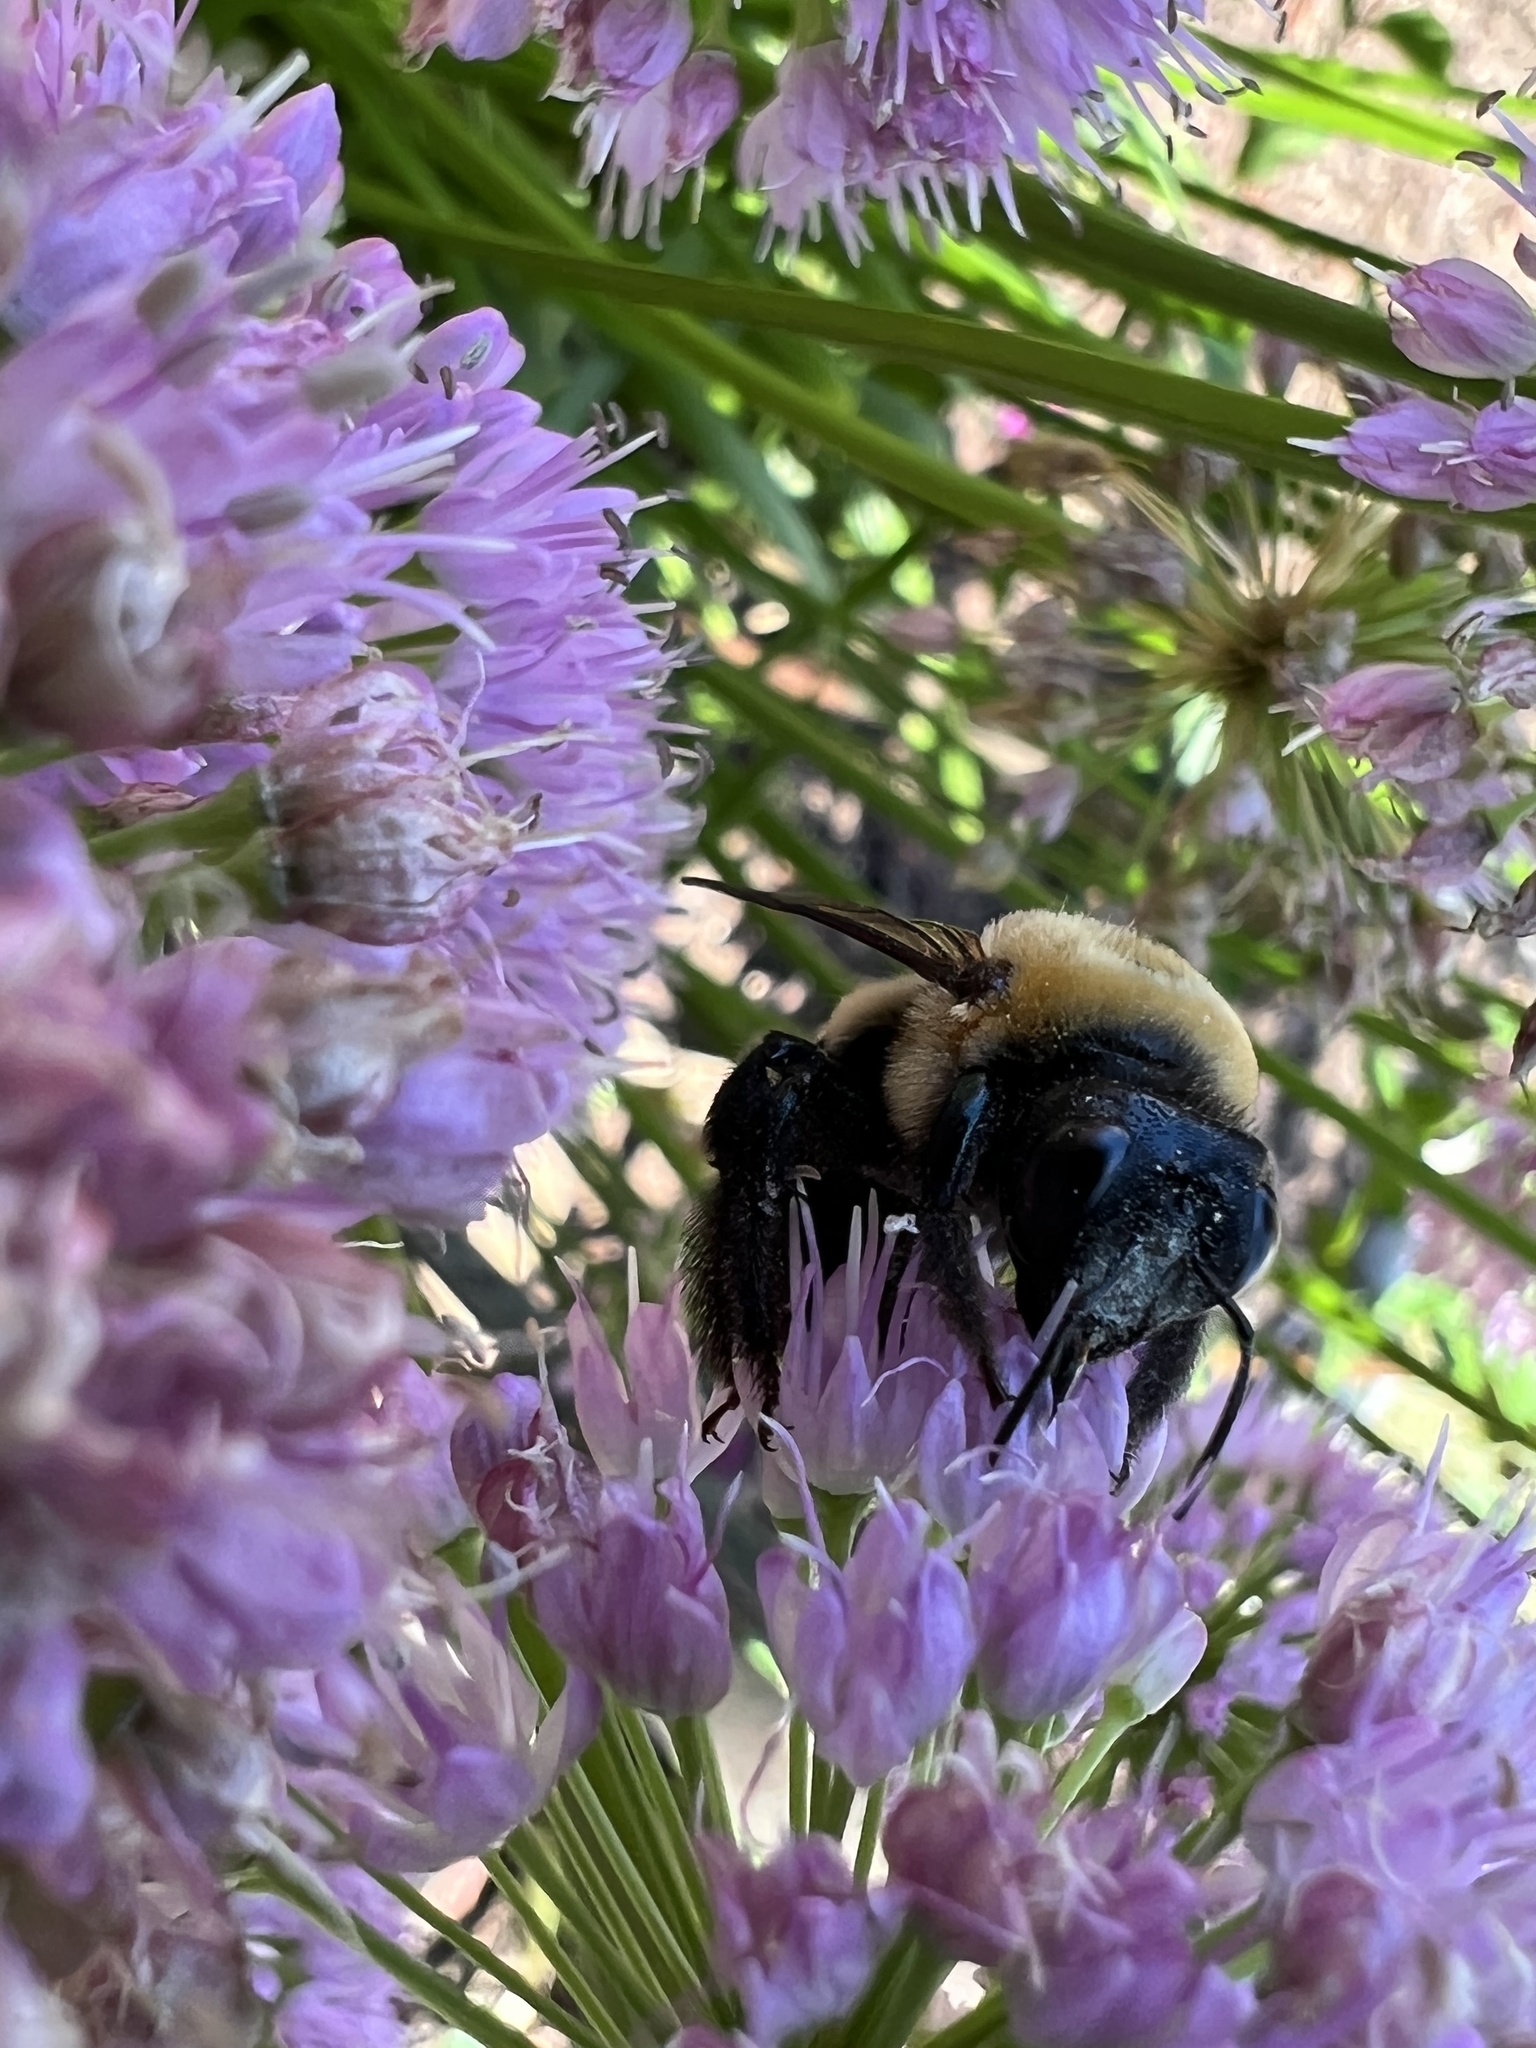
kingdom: Animalia
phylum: Arthropoda
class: Insecta
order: Hymenoptera
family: Apidae
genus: Xylocopa
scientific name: Xylocopa virginica
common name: Carpenter bee
